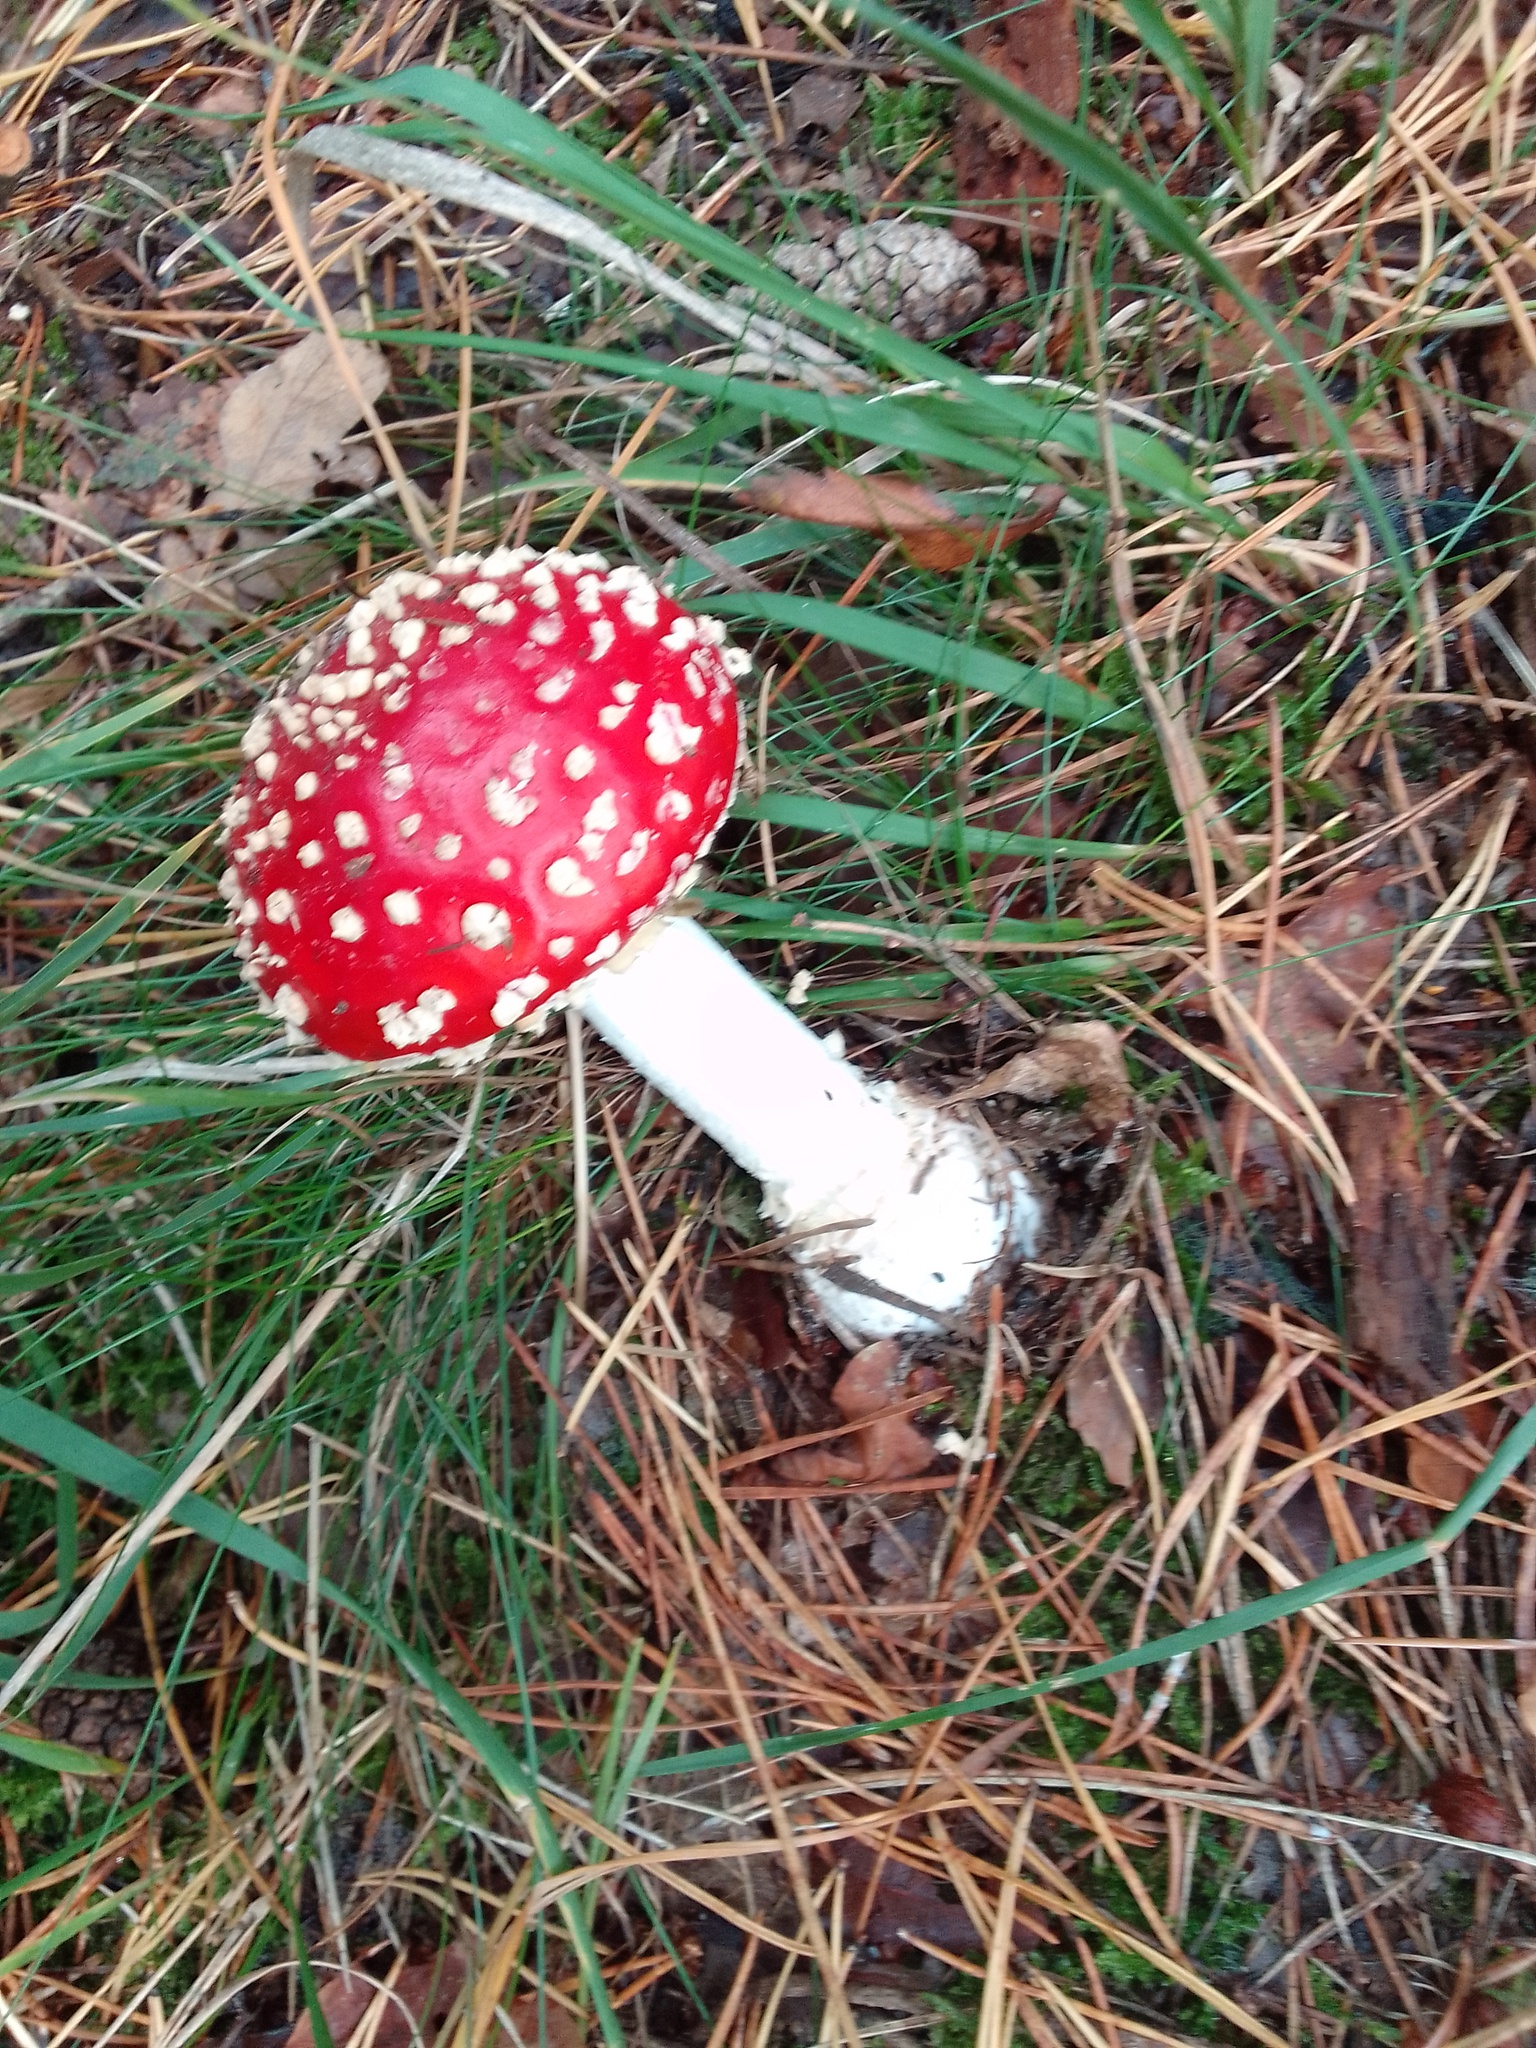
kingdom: Fungi
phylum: Basidiomycota
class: Agaricomycetes
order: Agaricales
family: Amanitaceae
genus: Amanita
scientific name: Amanita muscaria
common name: Fly agaric
